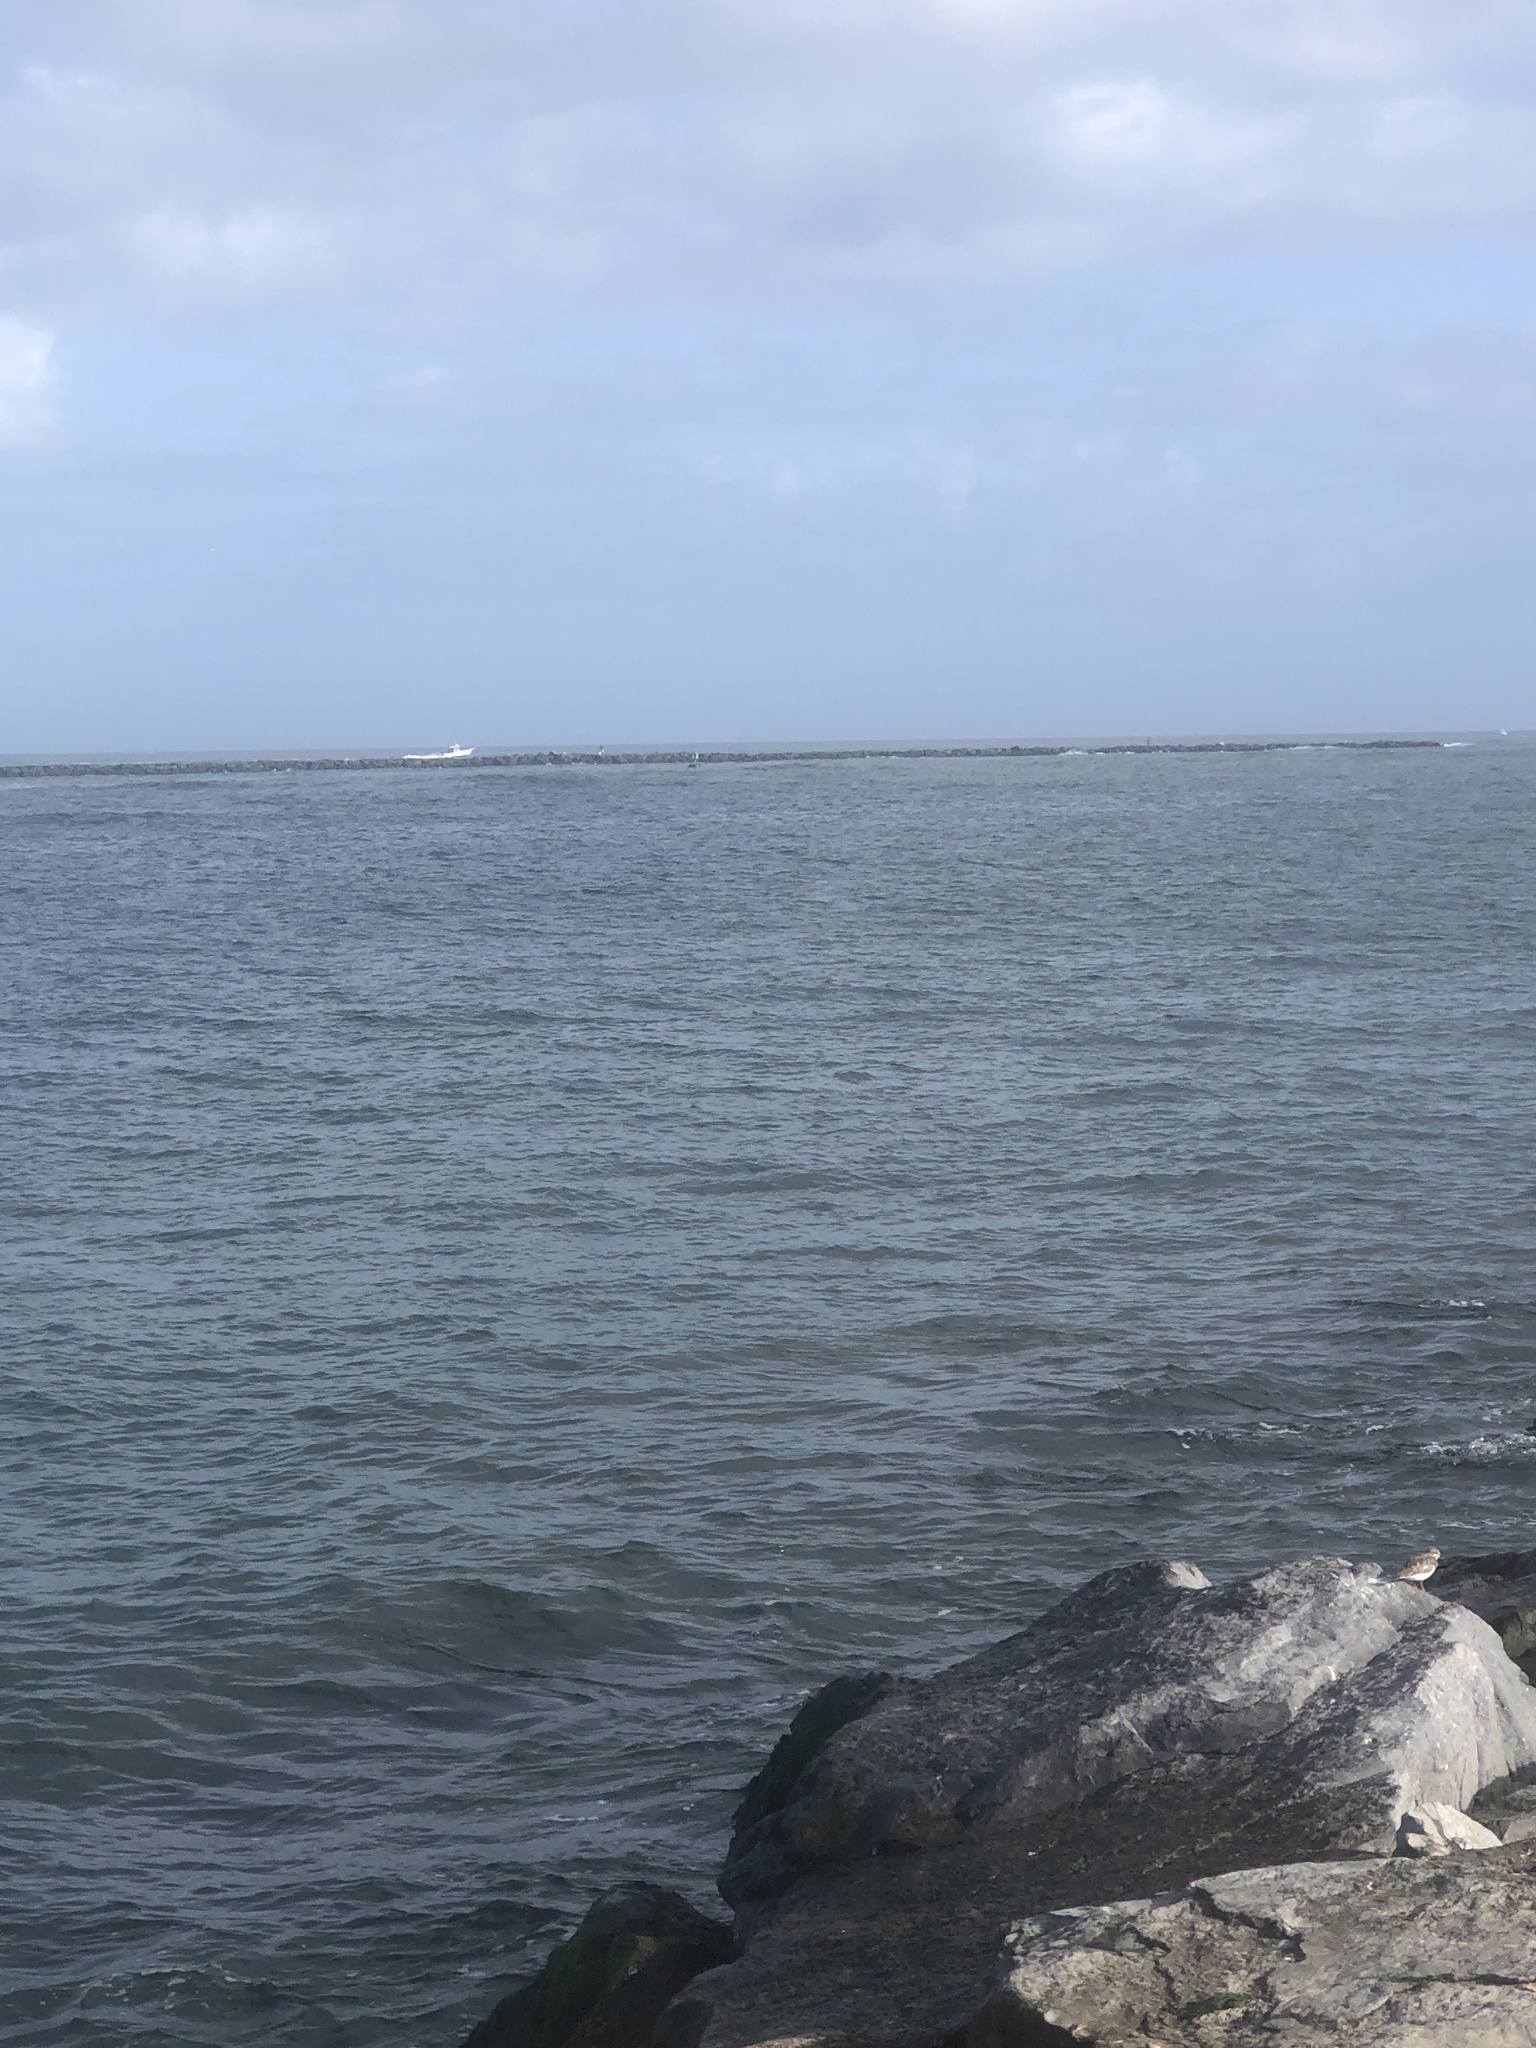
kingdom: Animalia
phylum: Chordata
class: Aves
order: Charadriiformes
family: Scolopacidae
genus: Arenaria
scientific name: Arenaria interpres
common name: Ruddy turnstone
